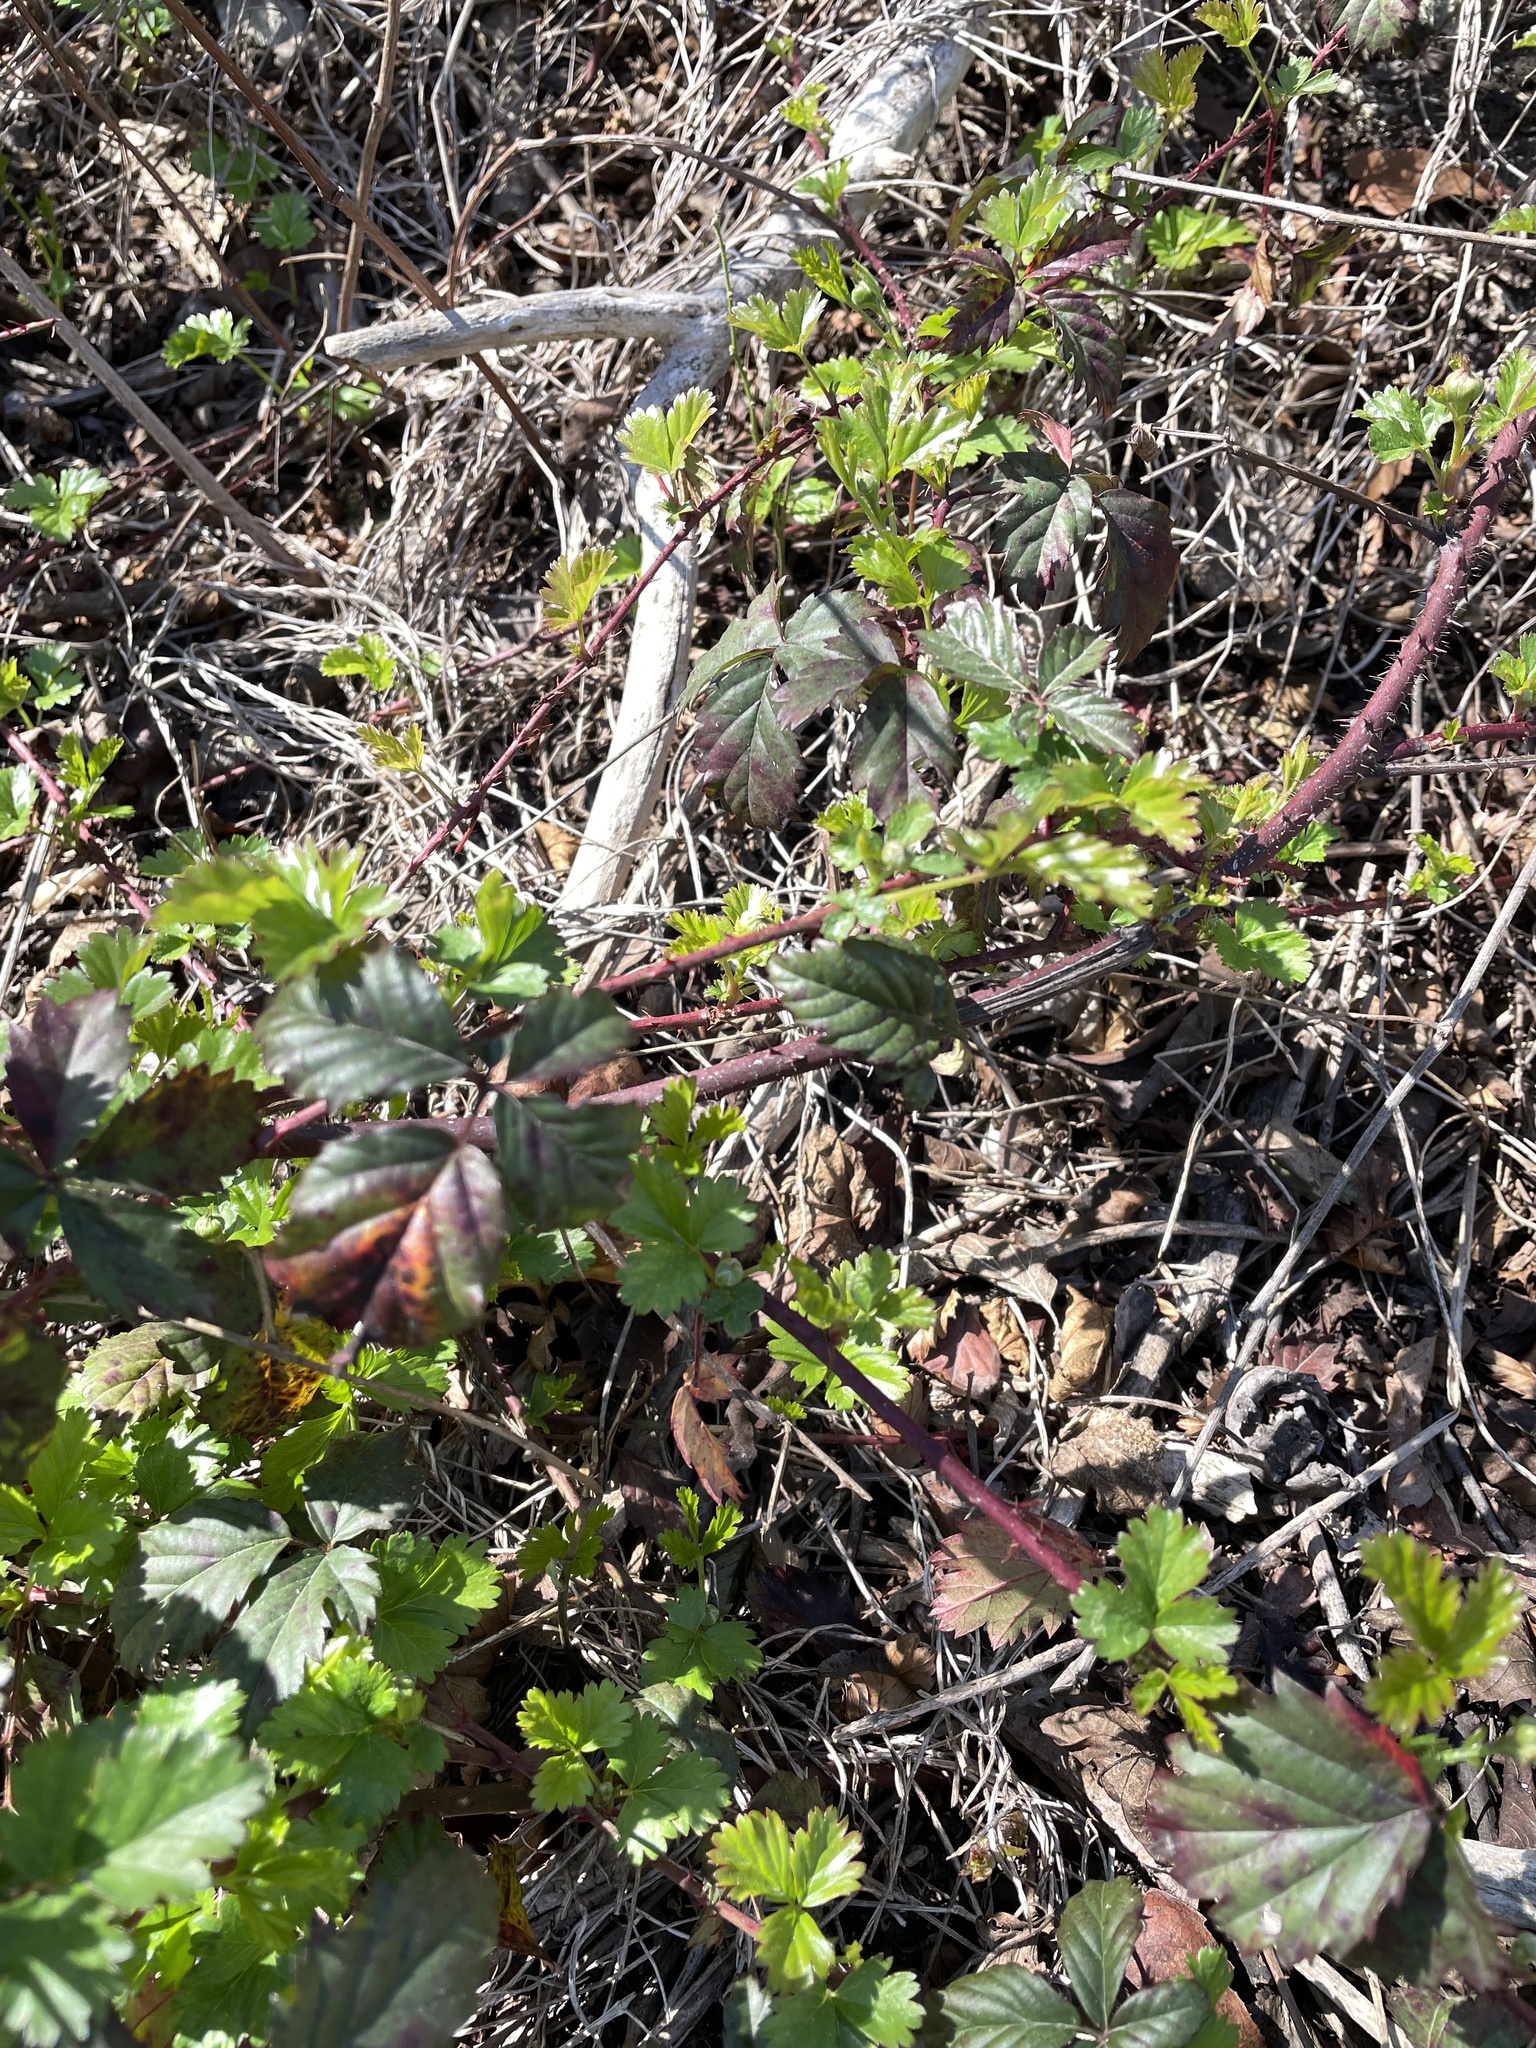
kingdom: Plantae
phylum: Tracheophyta
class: Magnoliopsida
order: Rosales
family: Rosaceae
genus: Rubus
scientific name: Rubus trivialis
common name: Southern dewberry
